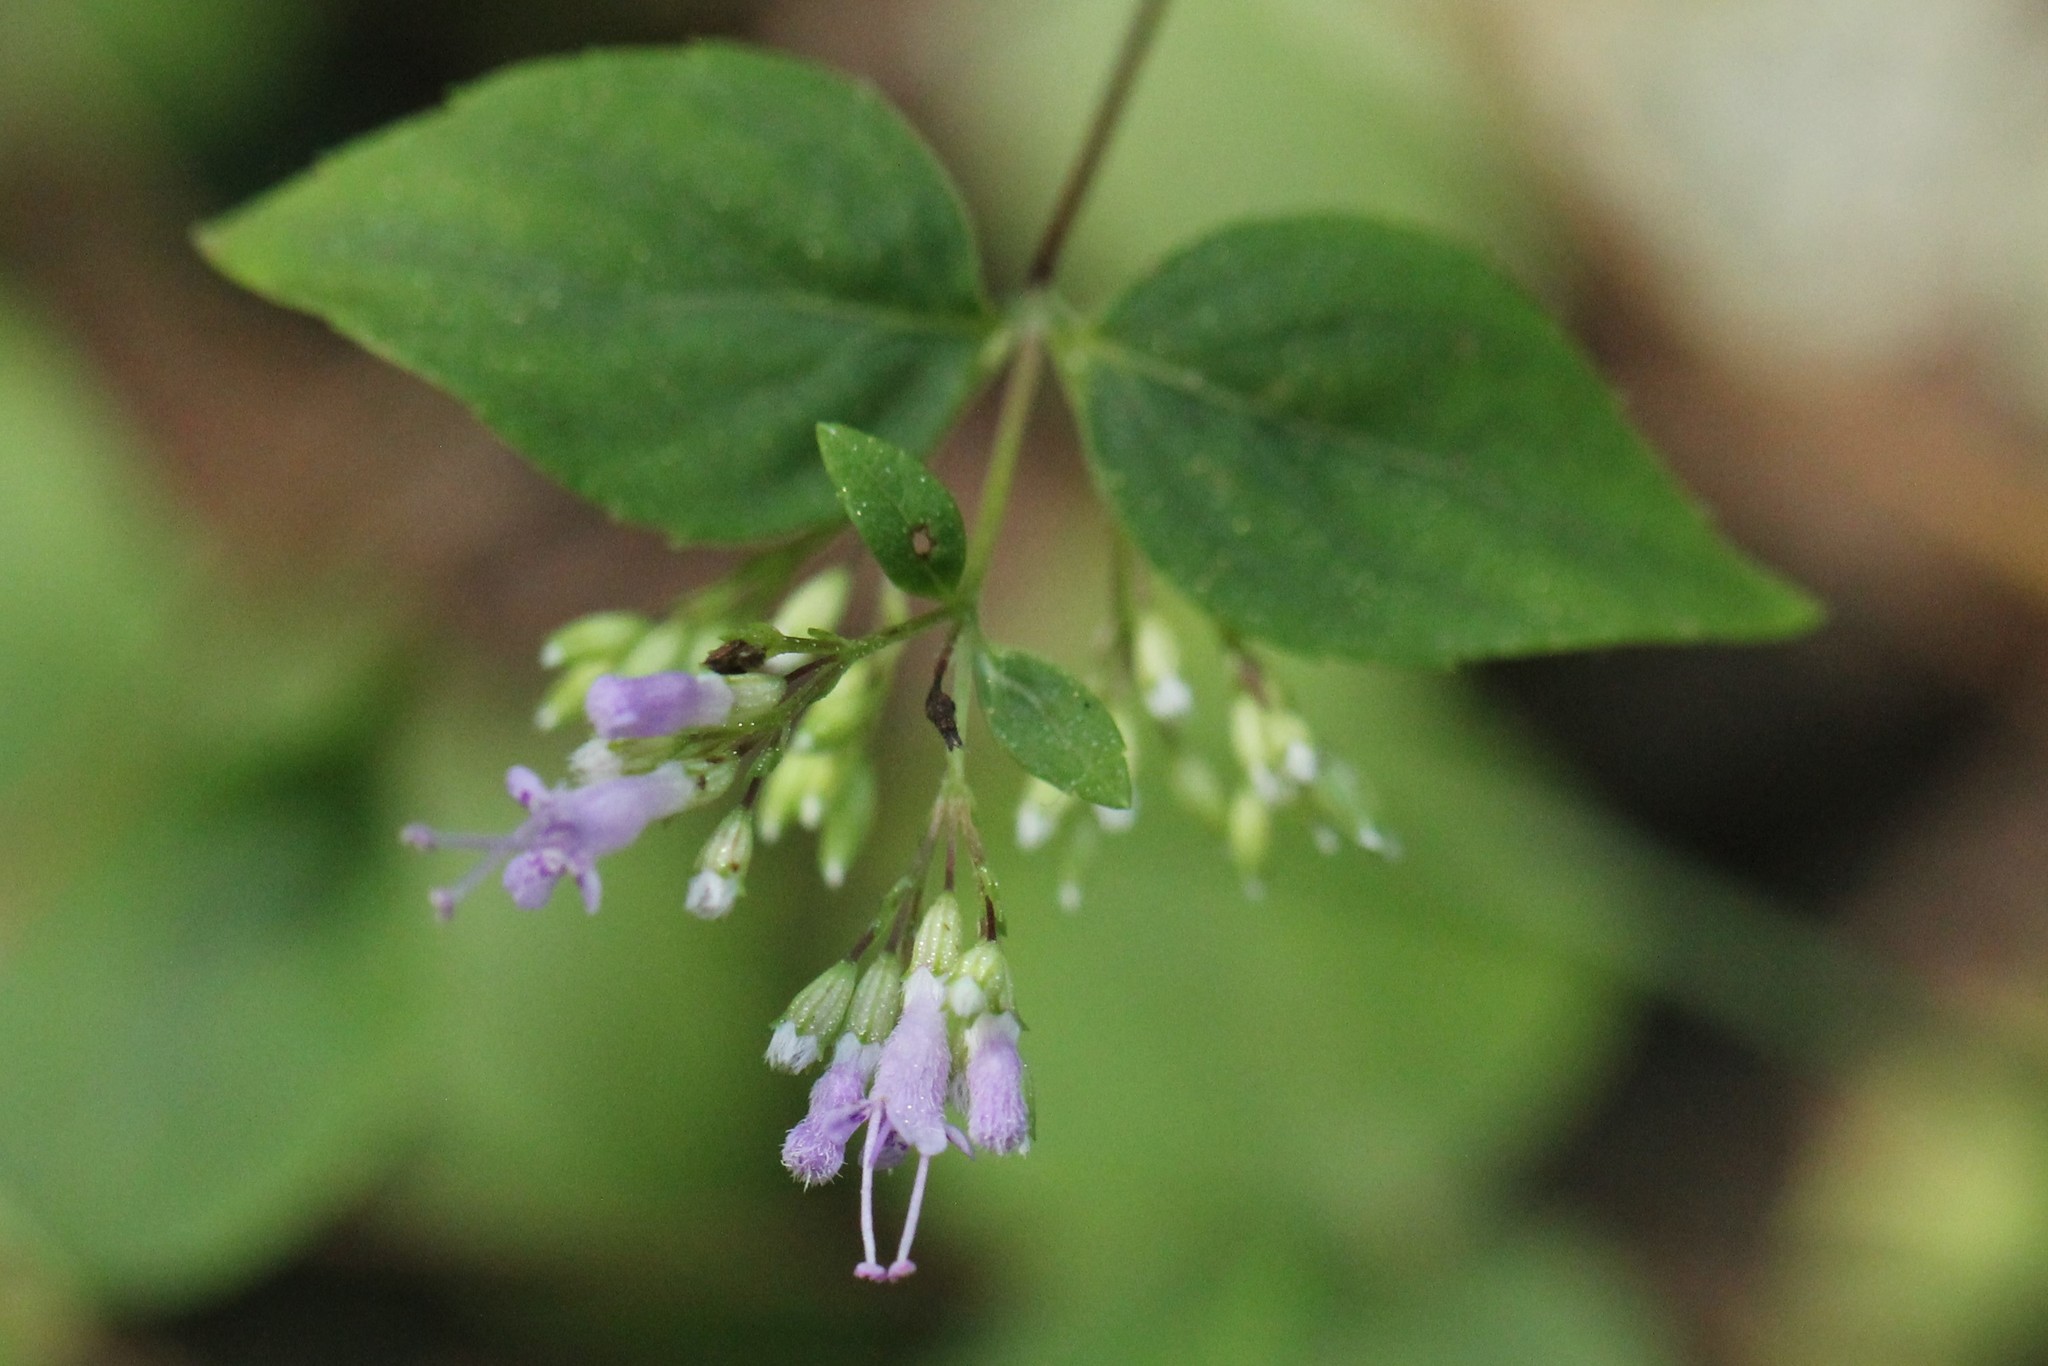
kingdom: Plantae
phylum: Tracheophyta
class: Magnoliopsida
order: Lamiales
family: Lamiaceae
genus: Cunila
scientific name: Cunila origanoides
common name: American dittany
